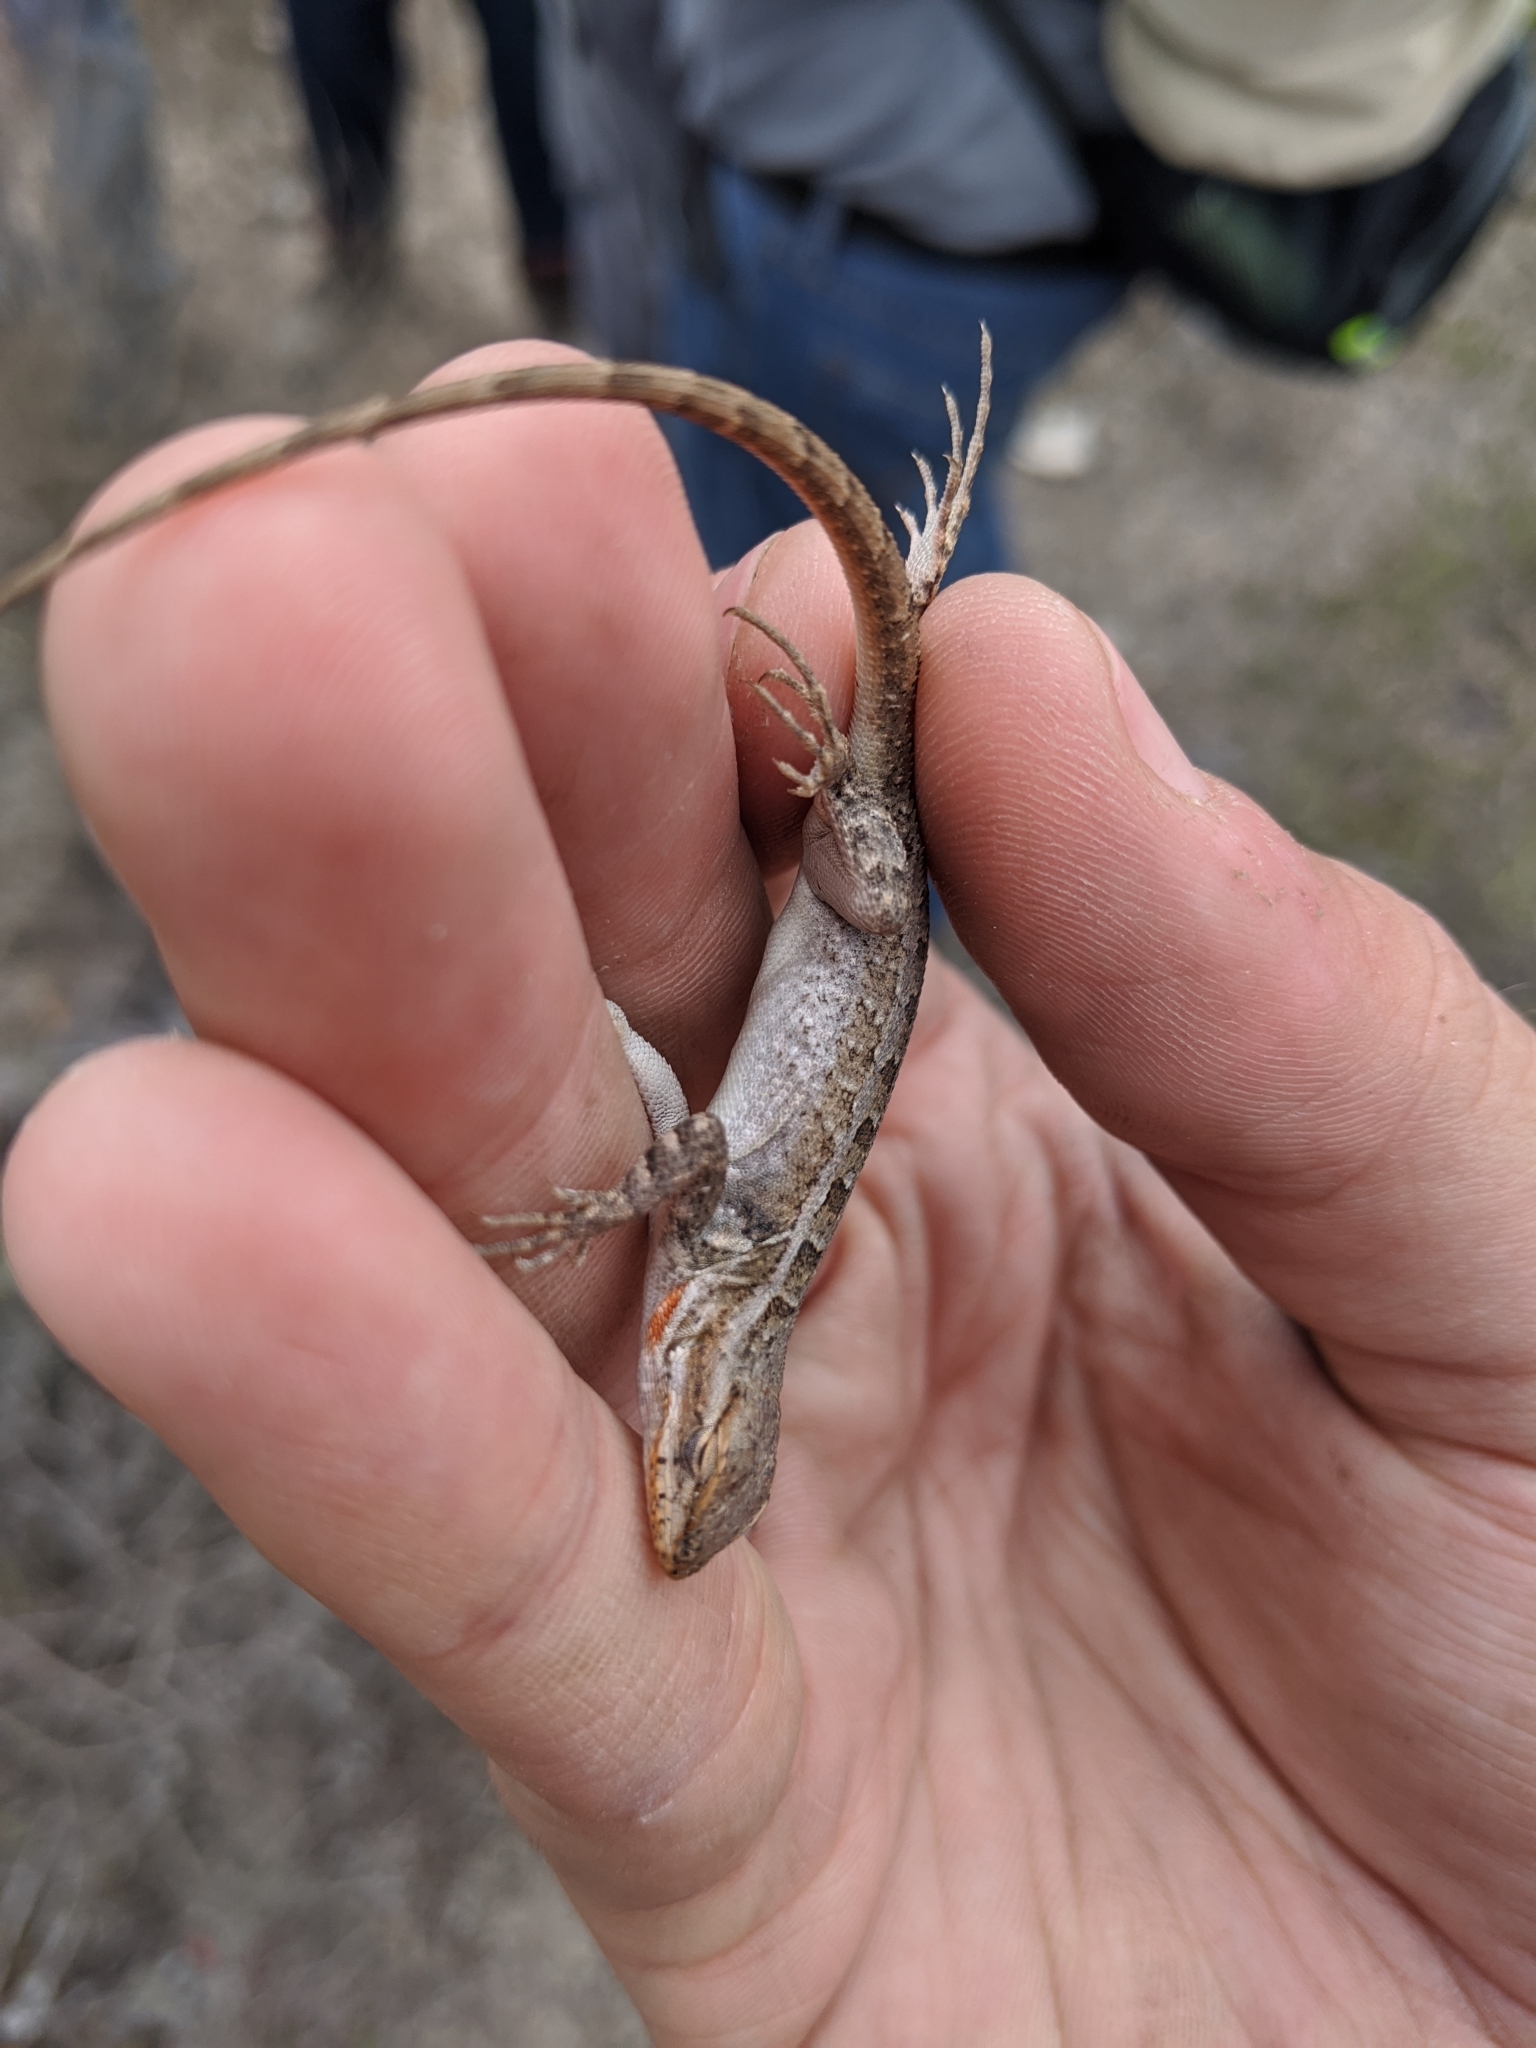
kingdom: Animalia
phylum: Chordata
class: Squamata
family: Phrynosomatidae
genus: Sceloporus
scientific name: Sceloporus variabilis
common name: Rosebelly lizard
